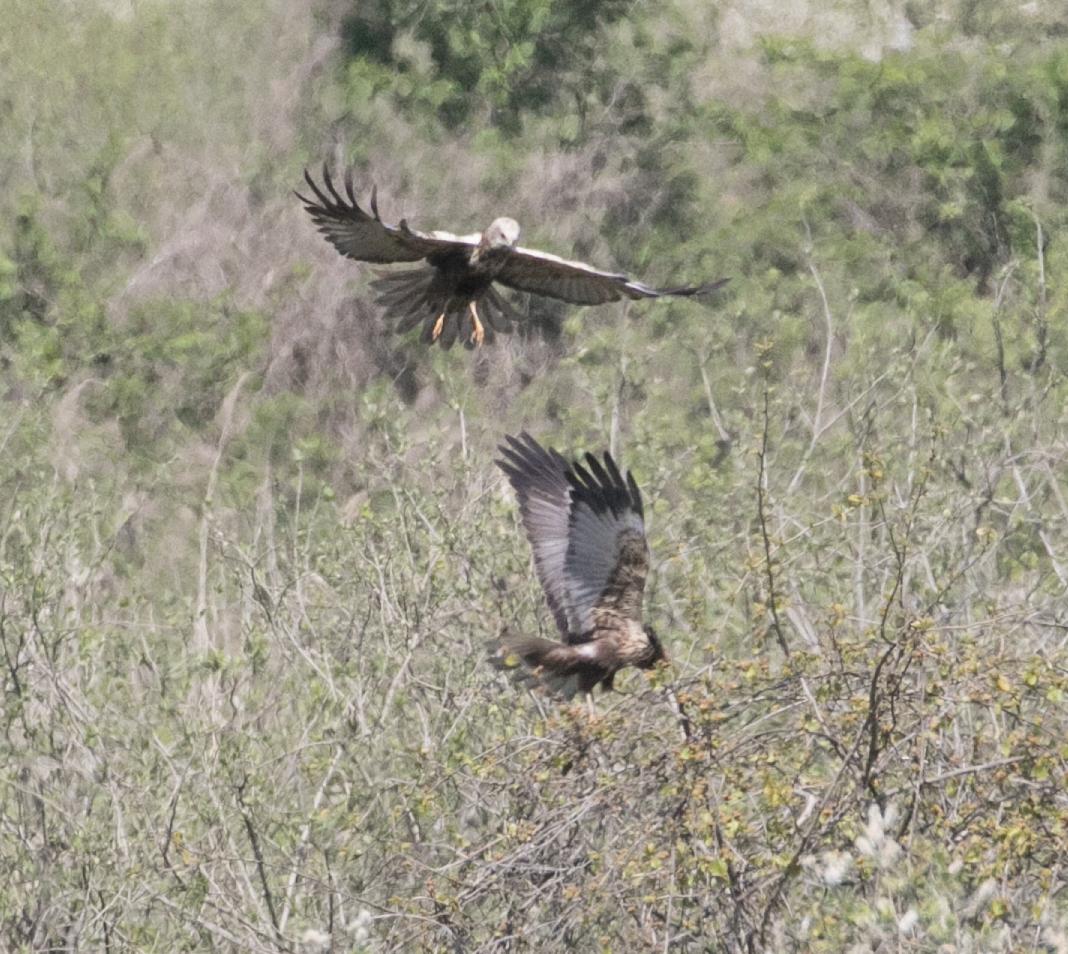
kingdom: Animalia
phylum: Chordata
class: Aves
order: Accipitriformes
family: Accipitridae
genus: Circus
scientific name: Circus aeruginosus
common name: Western marsh harrier
